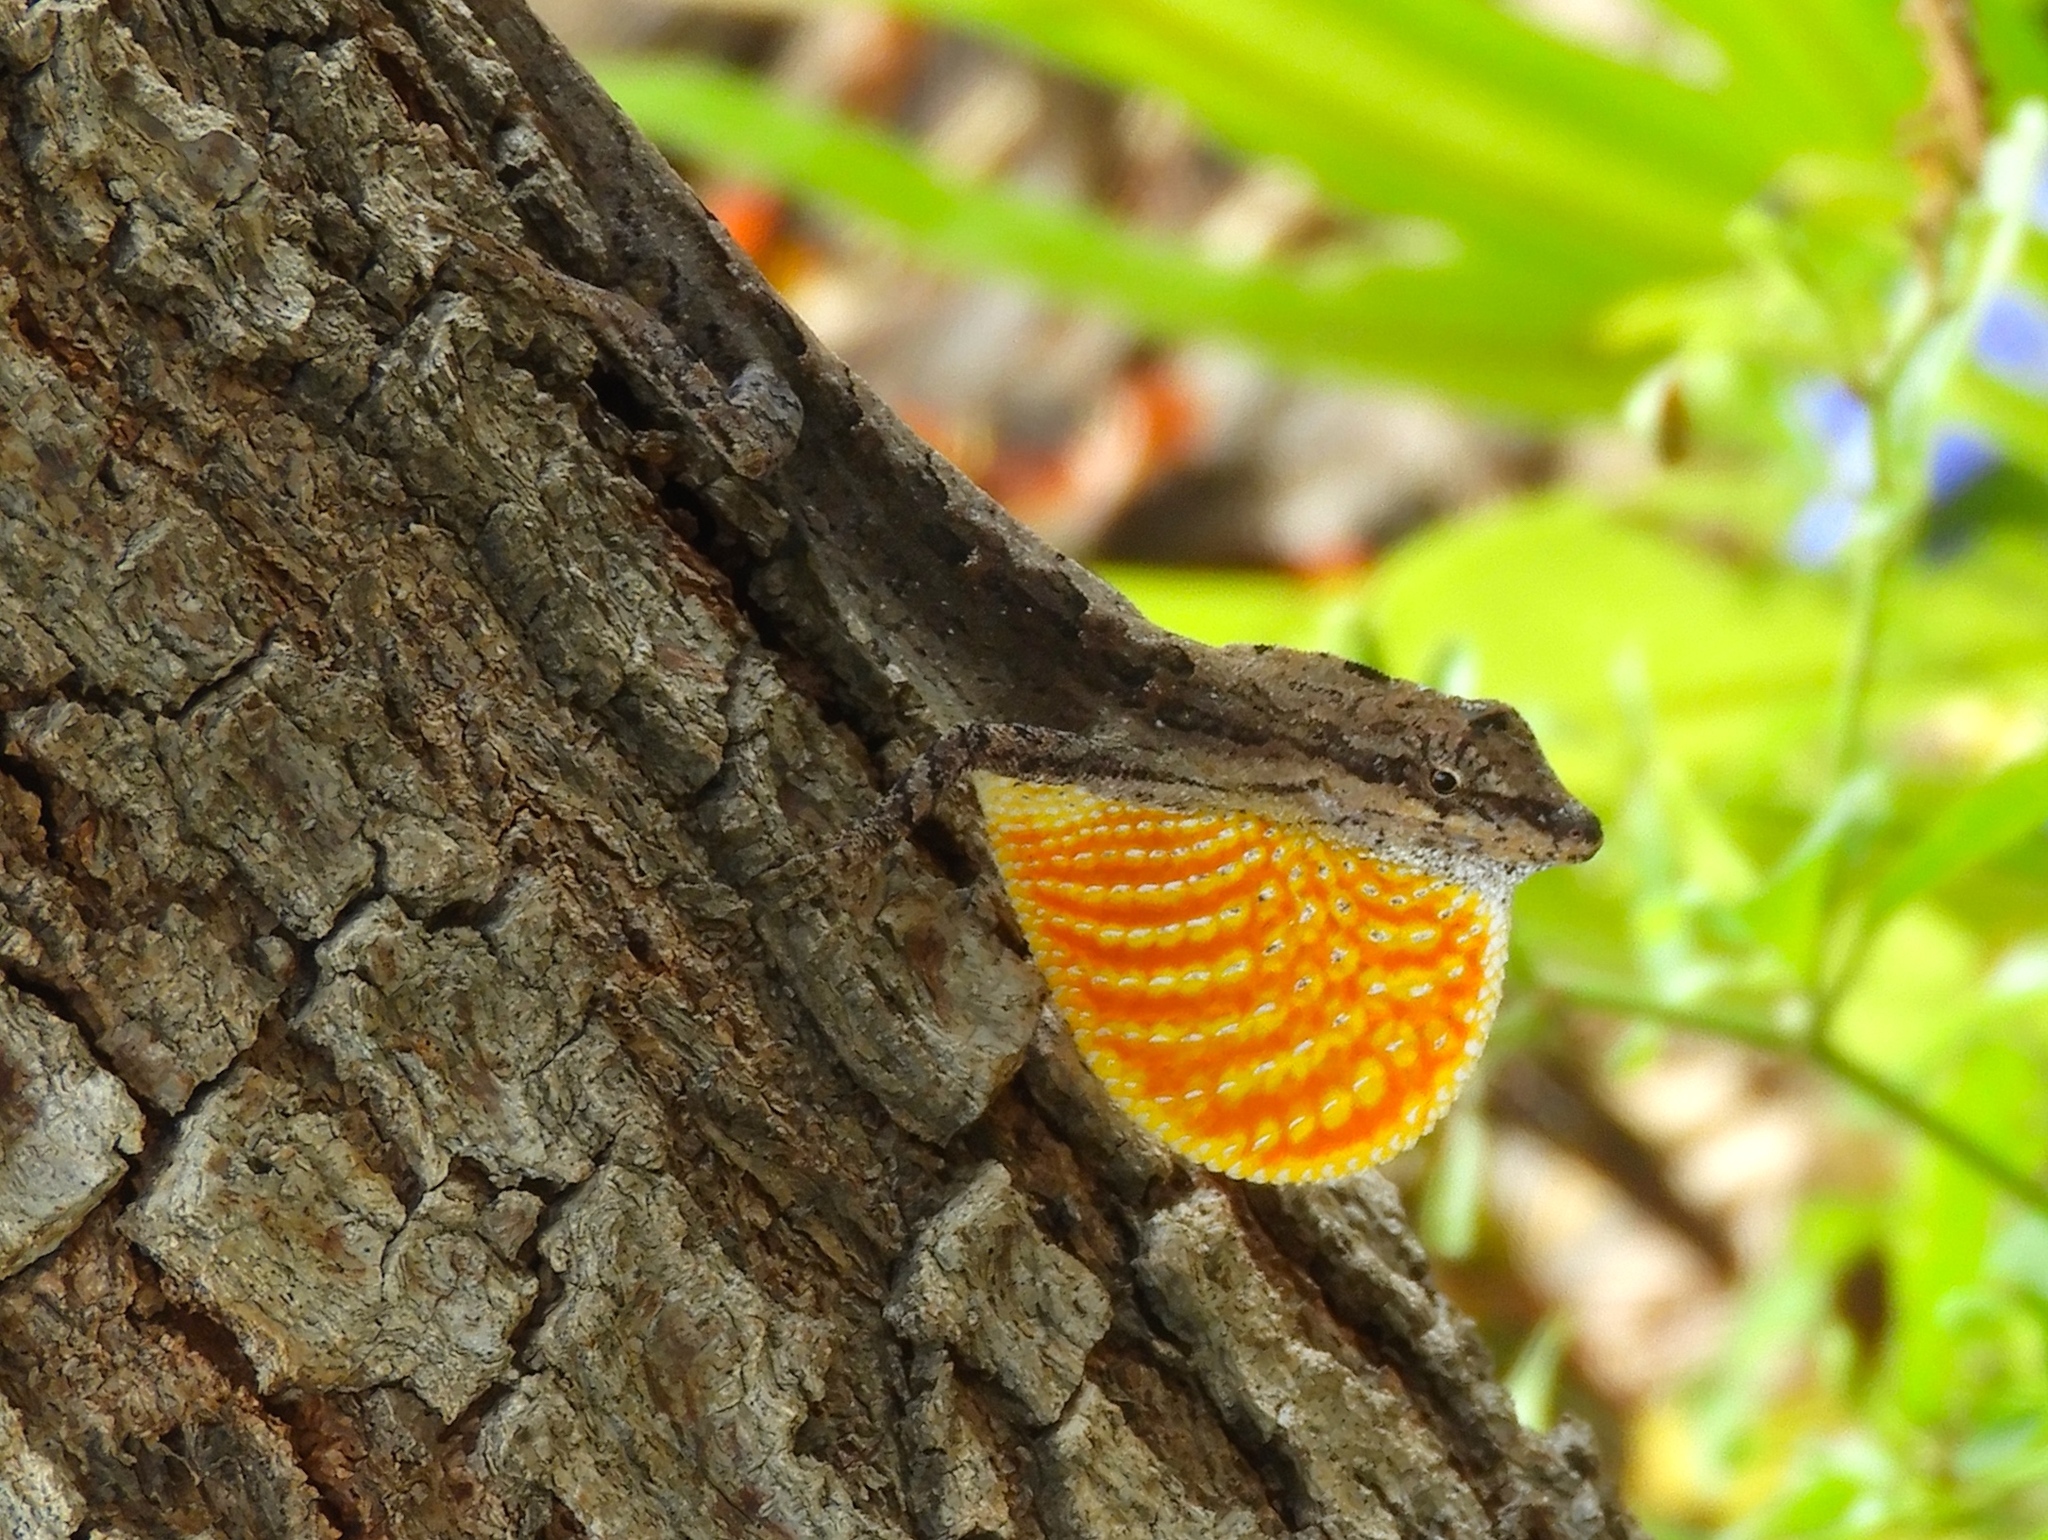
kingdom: Animalia
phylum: Chordata
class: Squamata
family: Dactyloidae
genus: Anolis
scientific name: Anolis nebulosus
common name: Clouded anole
